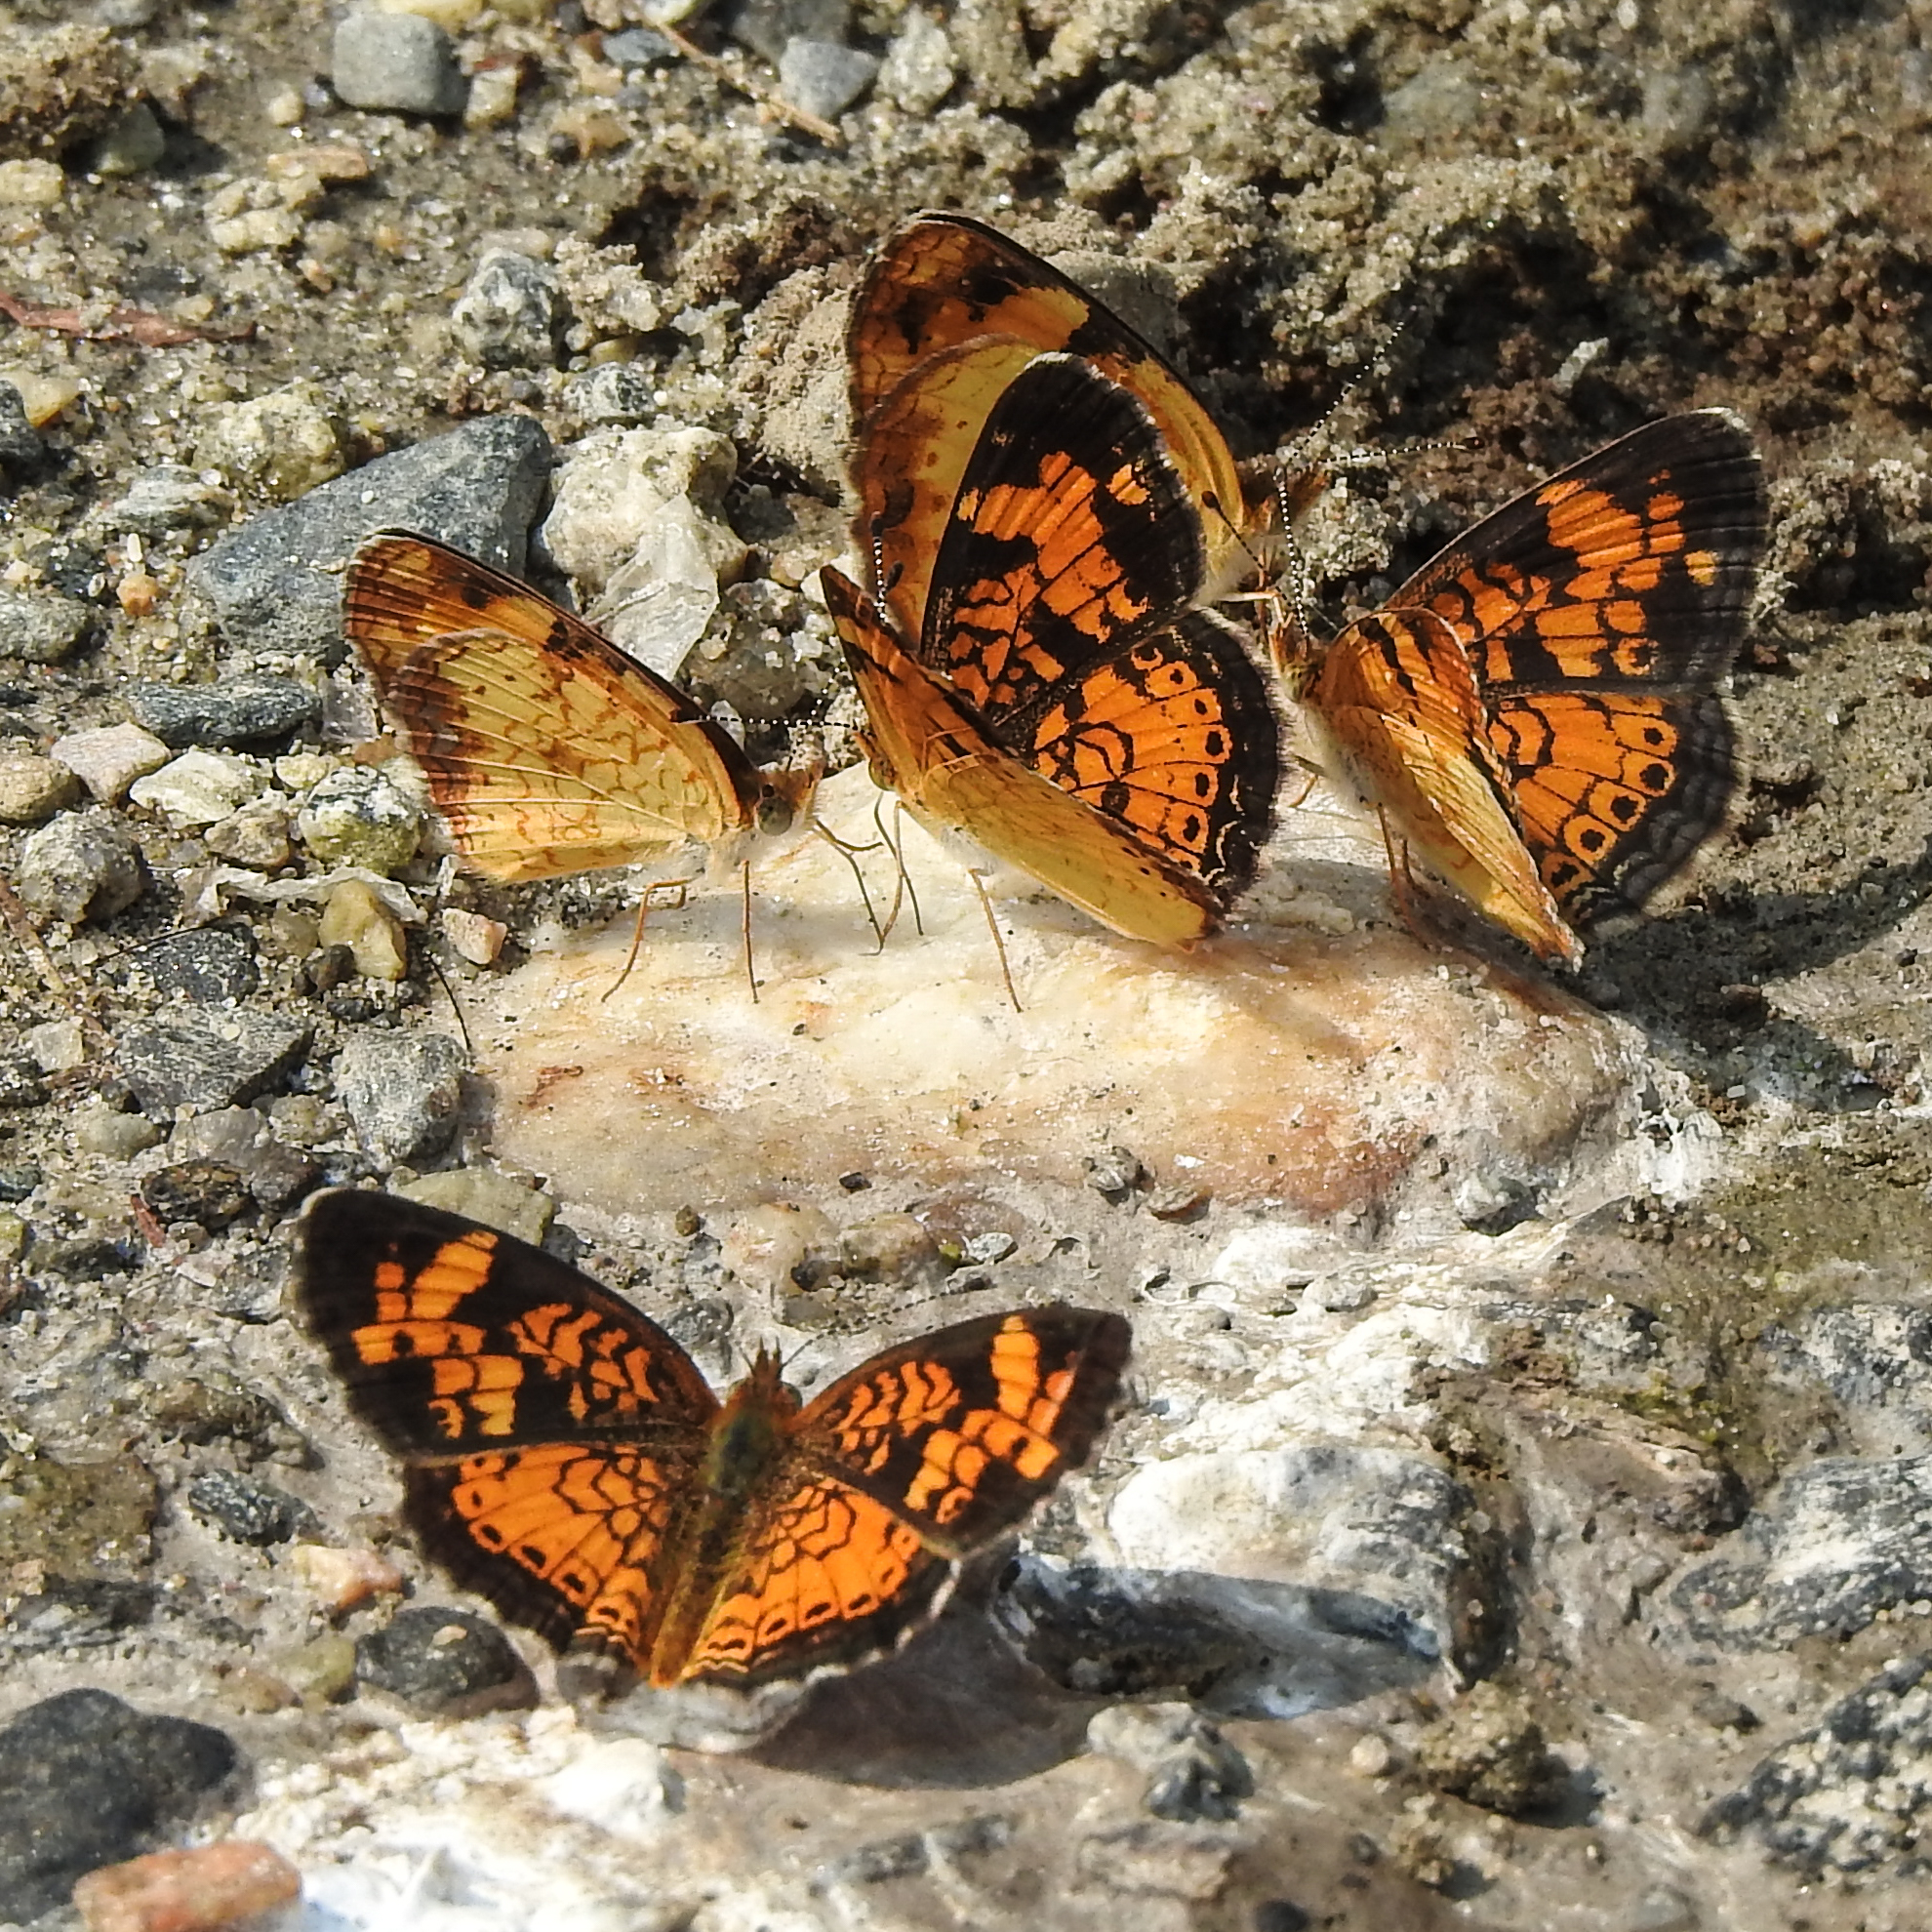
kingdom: Animalia
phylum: Arthropoda
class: Insecta
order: Lepidoptera
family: Nymphalidae
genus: Phyciodes
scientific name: Phyciodes tharos
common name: Pearl crescent
